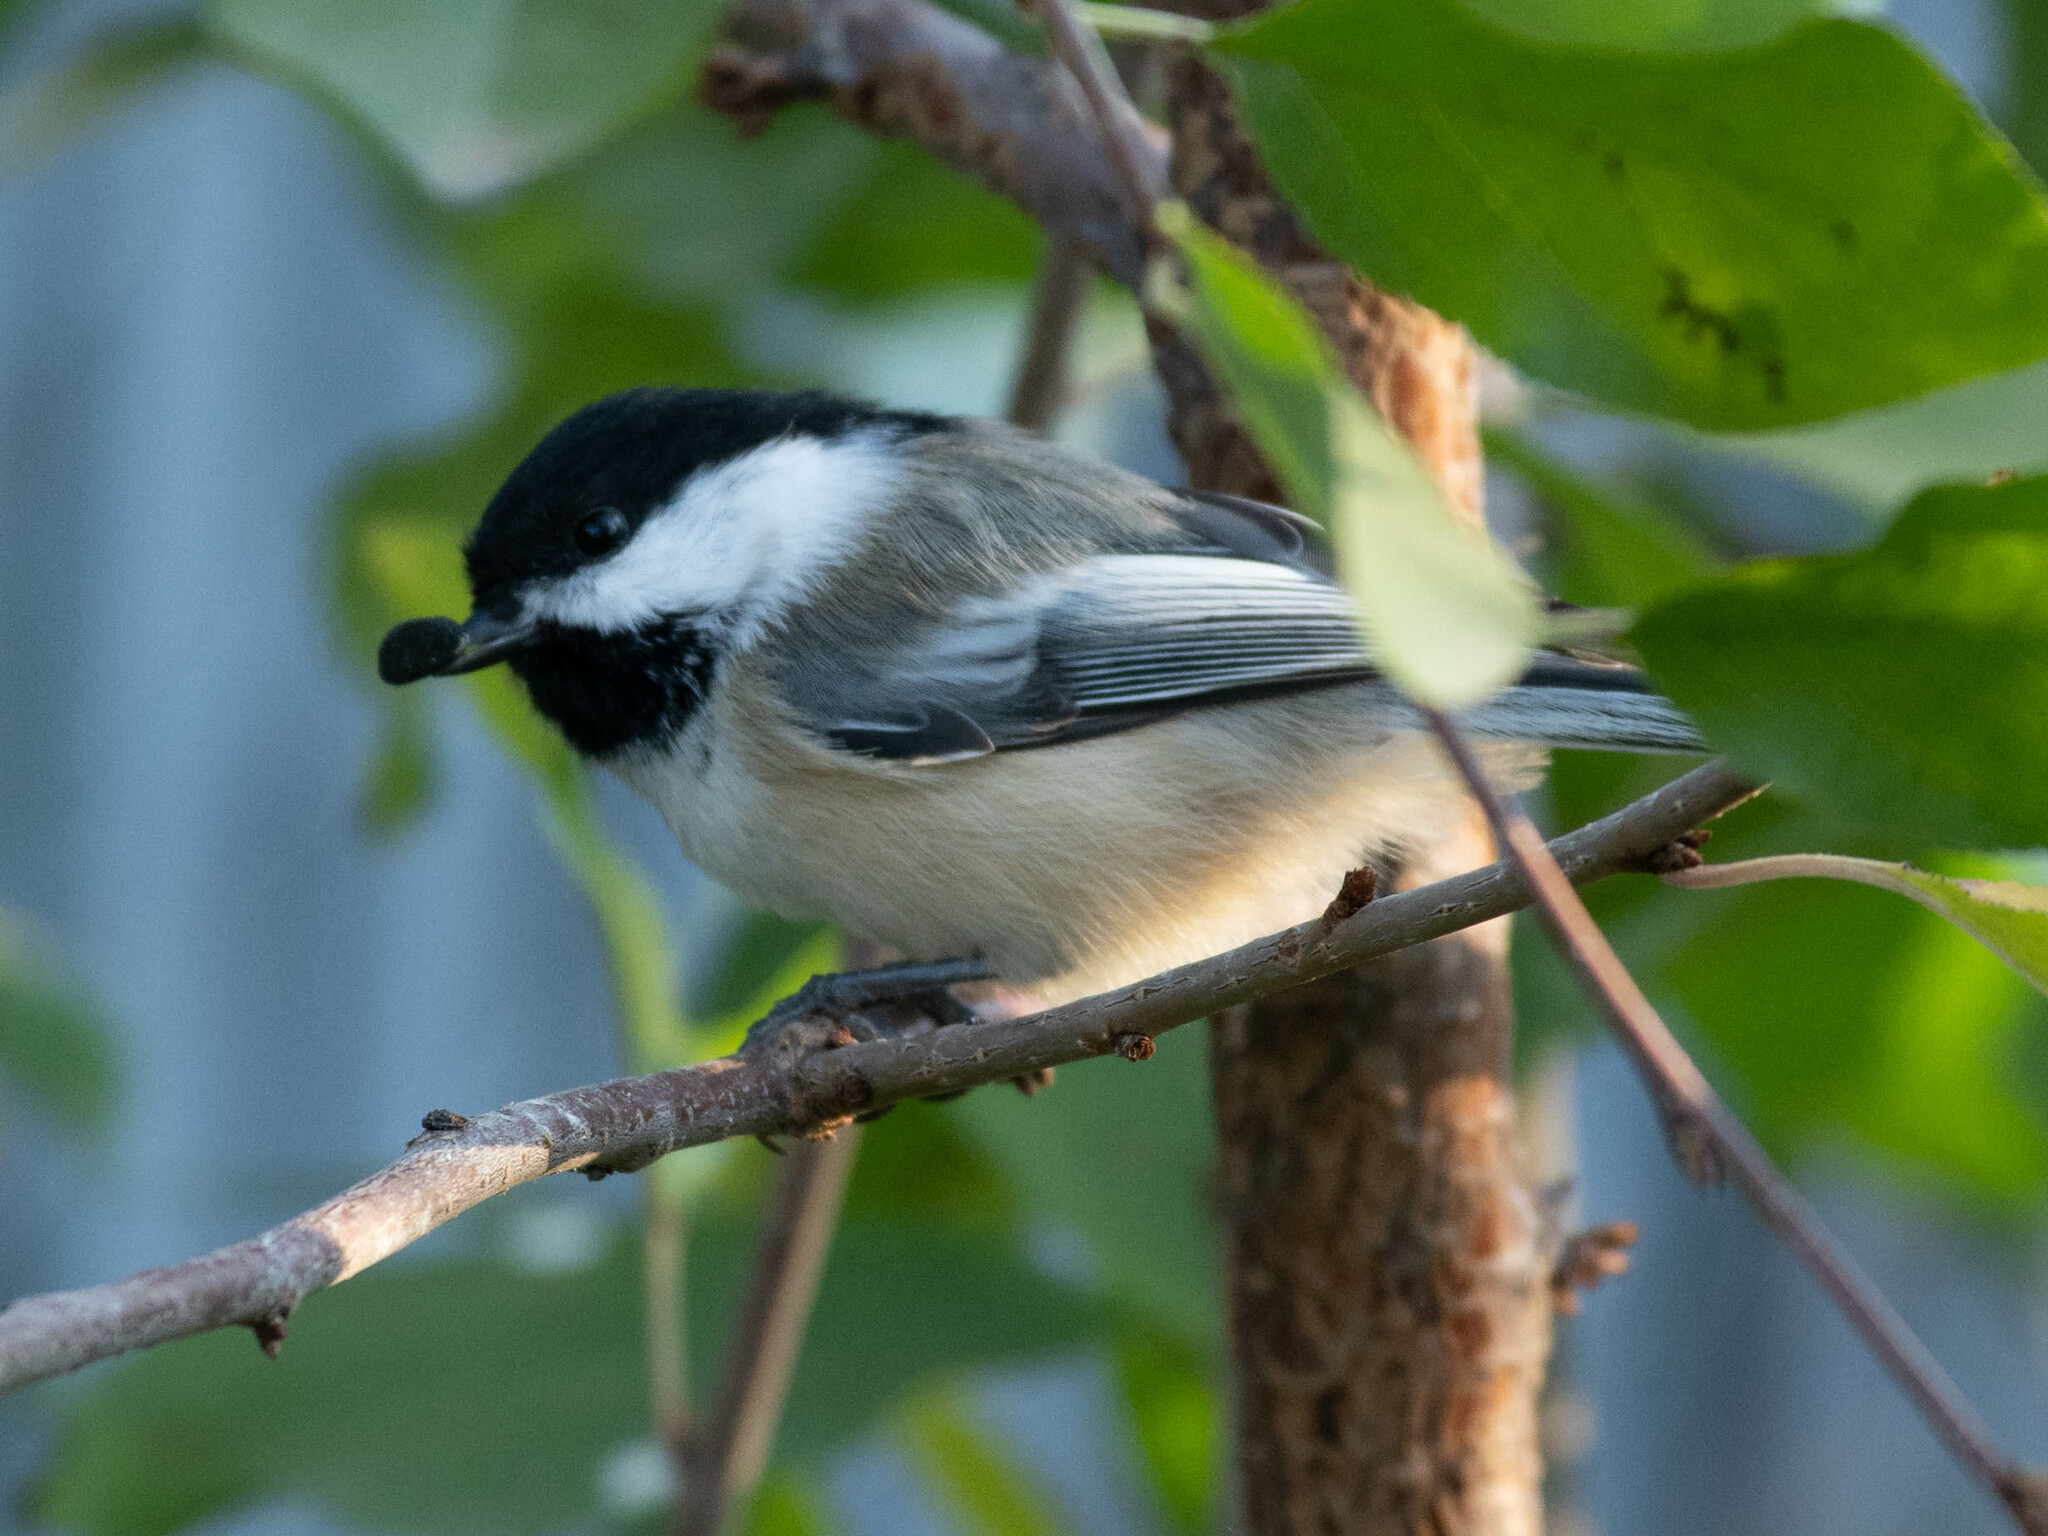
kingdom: Animalia
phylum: Chordata
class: Aves
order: Passeriformes
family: Paridae
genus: Poecile
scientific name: Poecile atricapillus
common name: Black-capped chickadee
